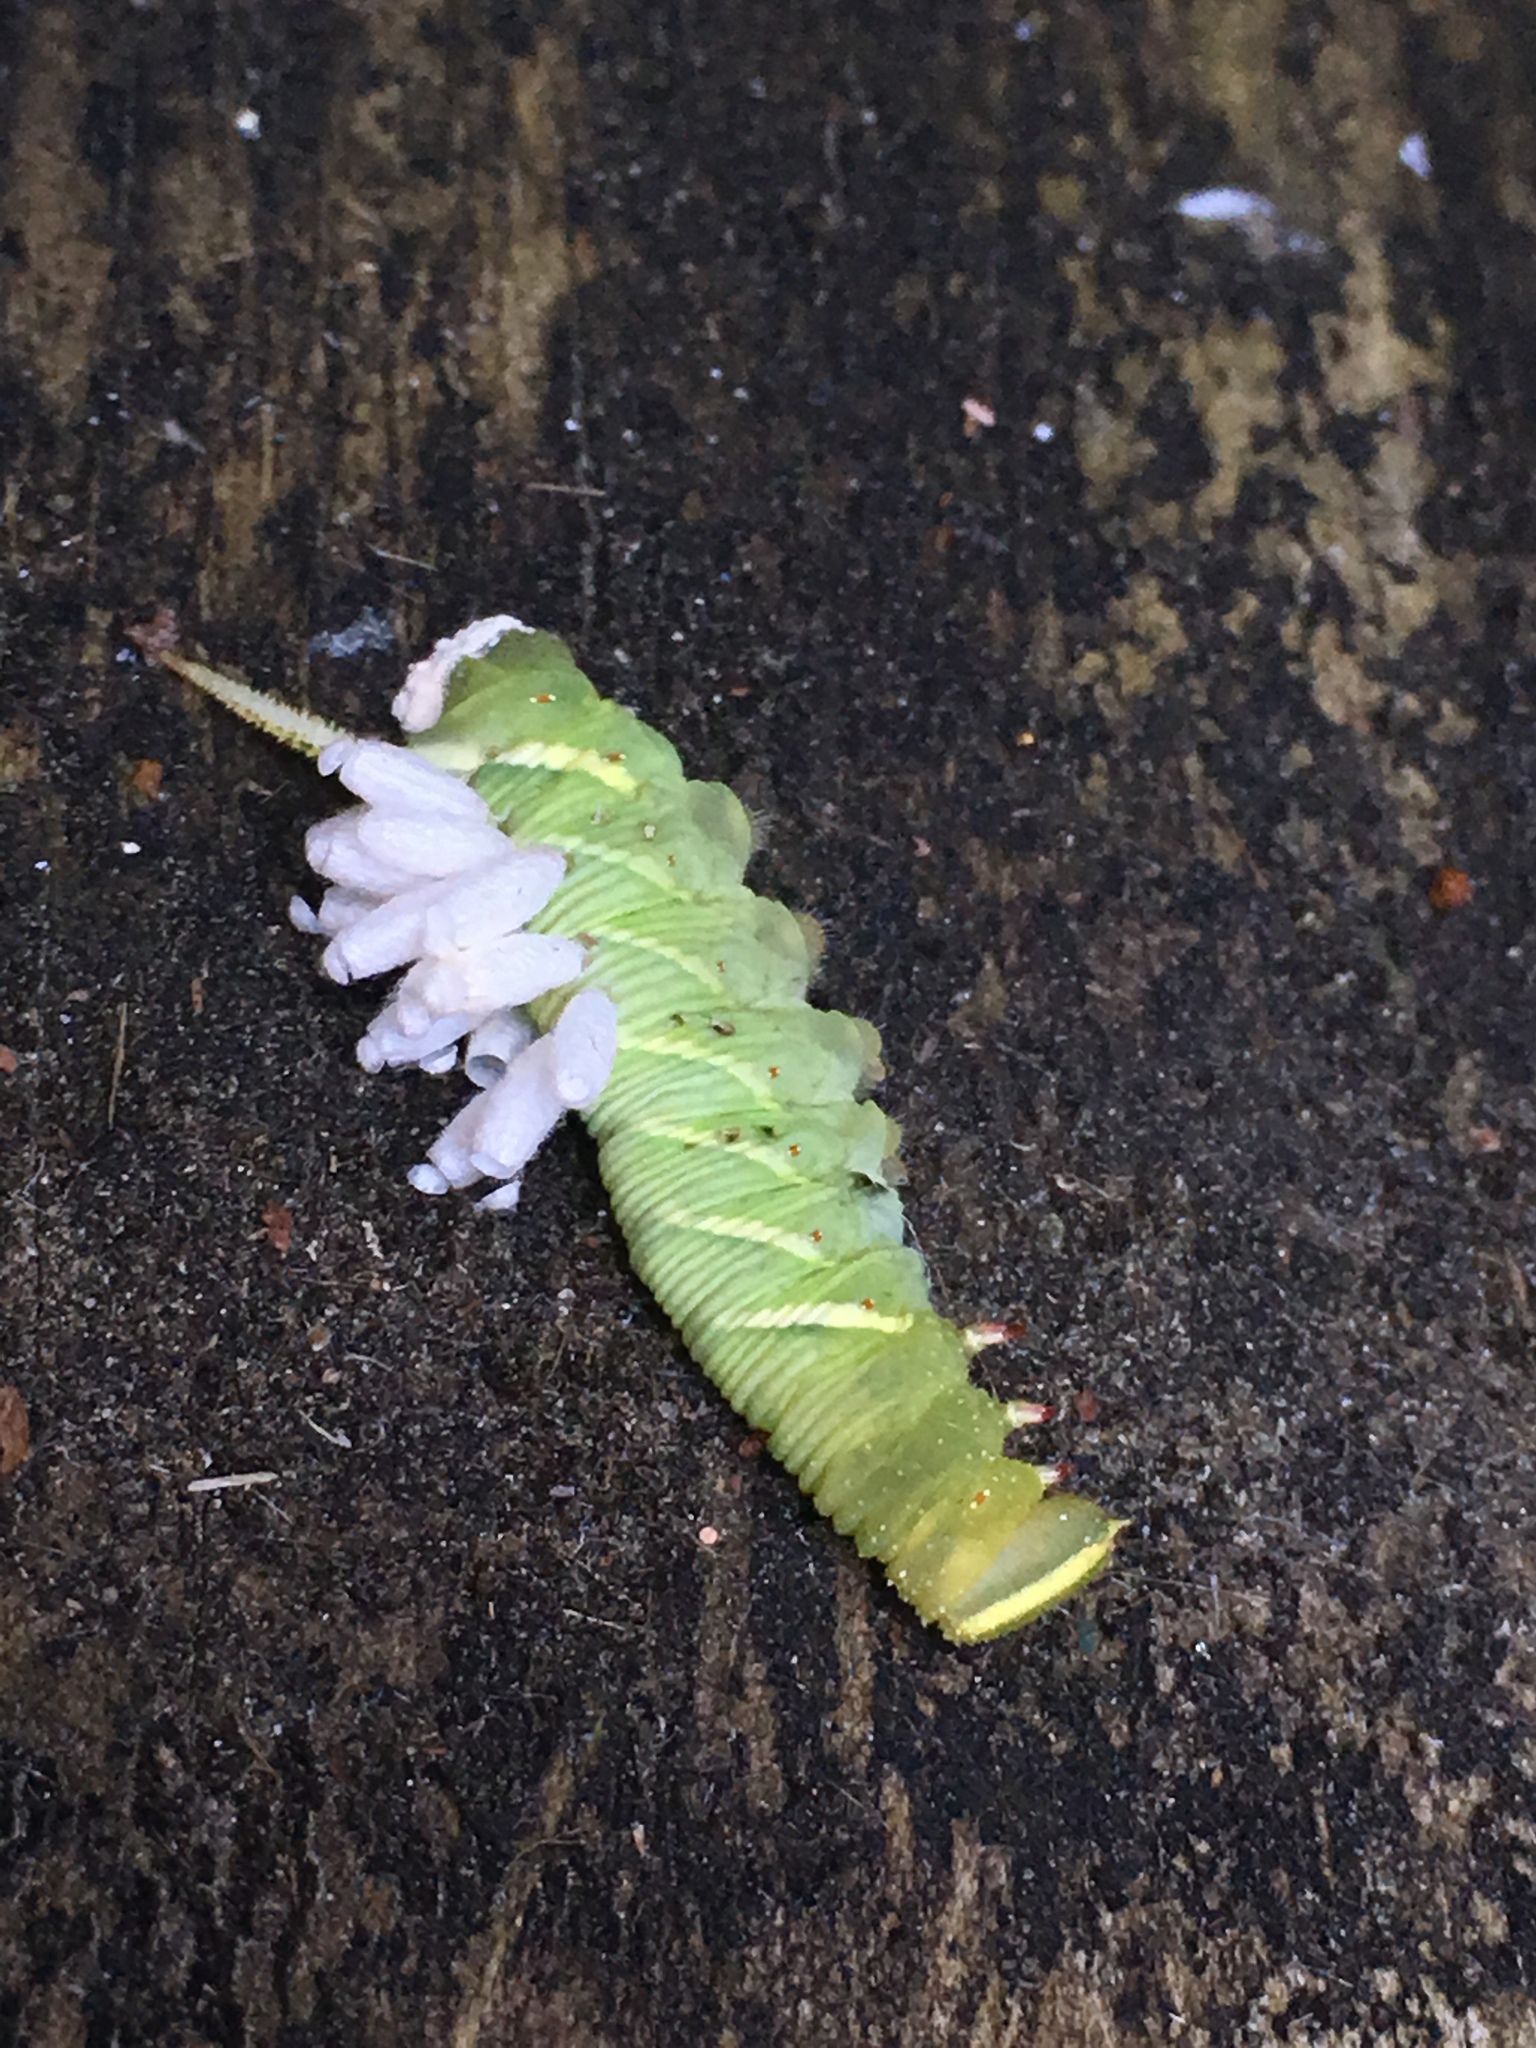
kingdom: Animalia
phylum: Arthropoda
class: Insecta
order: Hymenoptera
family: Braconidae
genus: Cotesia
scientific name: Cotesia congregata
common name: Hornworm parasitoid wasp
